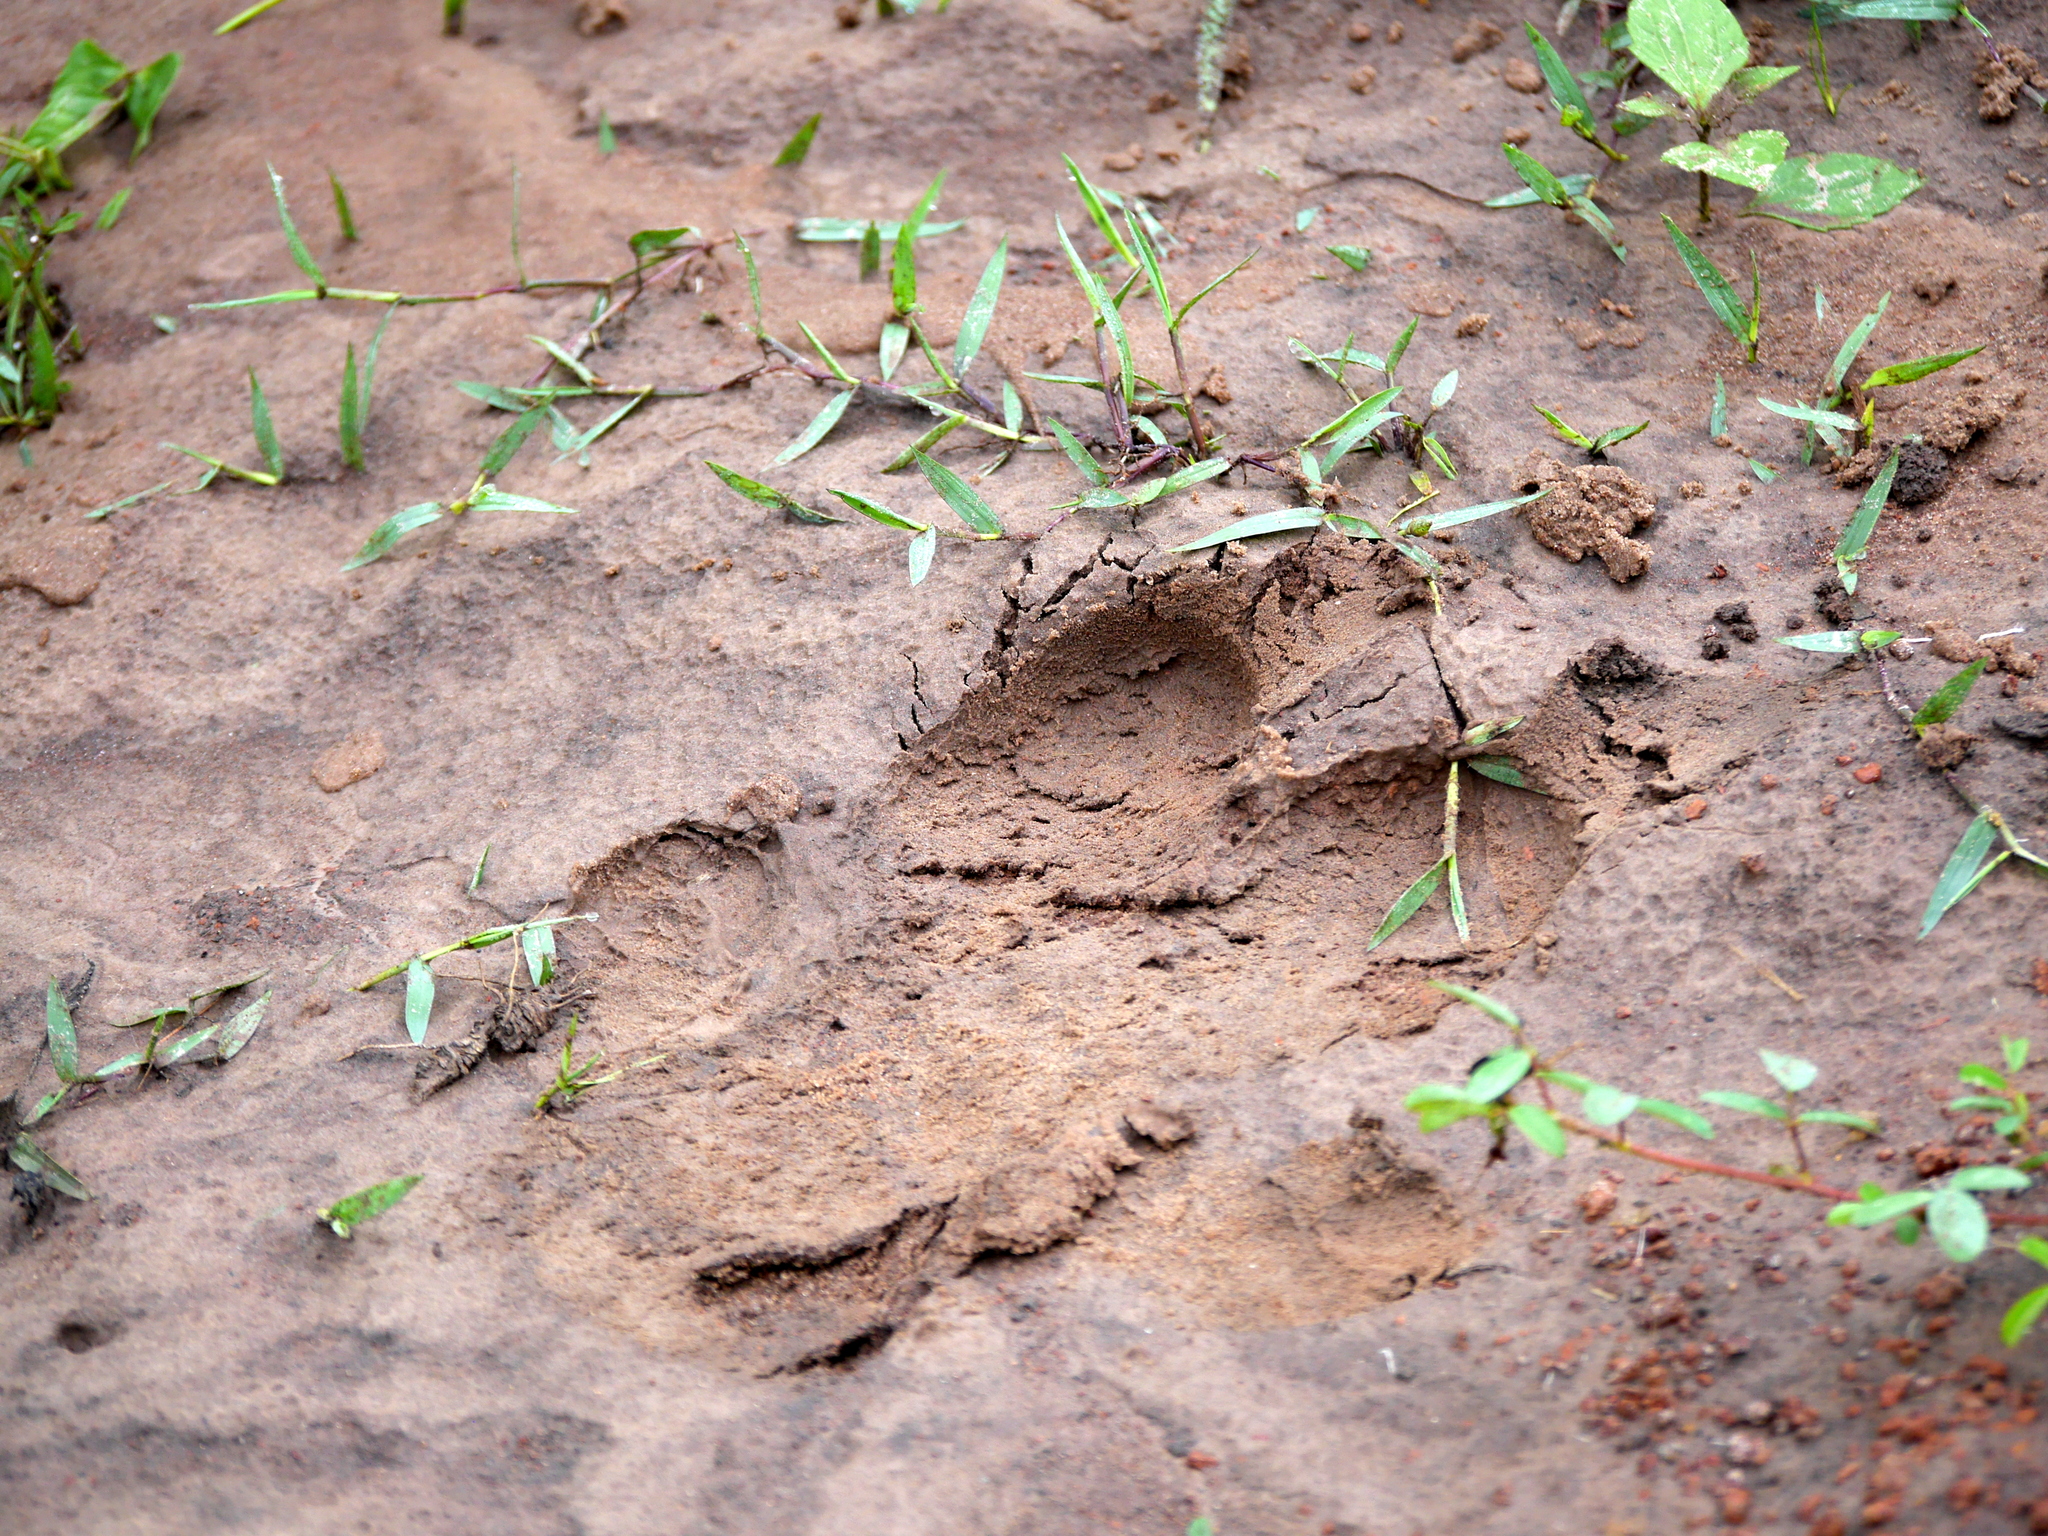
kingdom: Animalia
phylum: Chordata
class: Mammalia
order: Artiodactyla
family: Hippopotamidae
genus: Hippopotamus
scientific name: Hippopotamus amphibius
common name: Common hippopotamus
